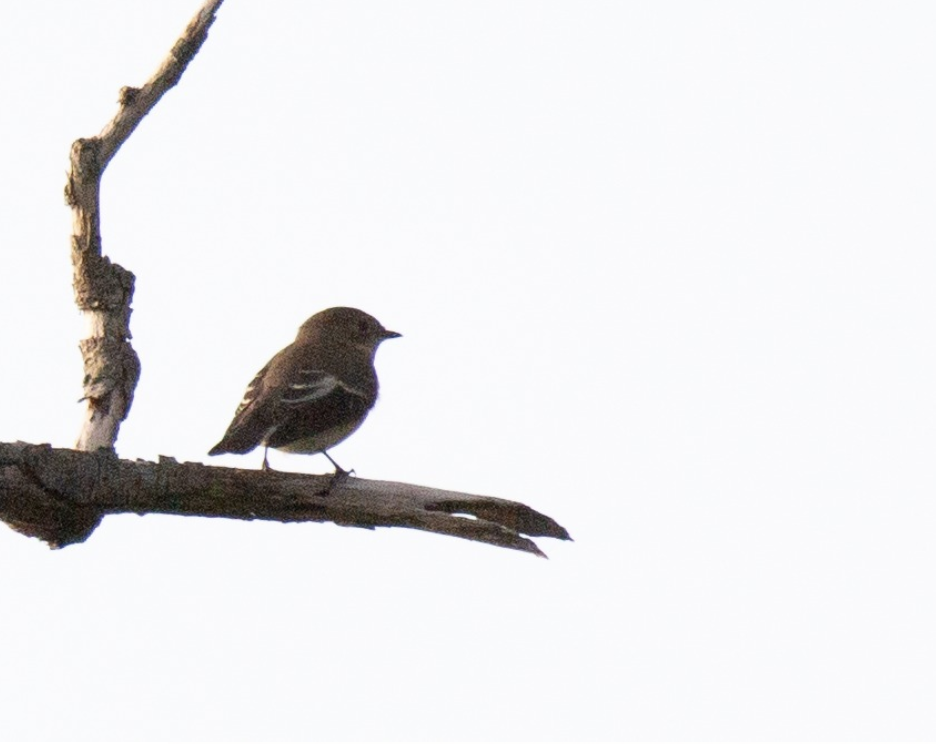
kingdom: Animalia
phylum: Chordata
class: Aves
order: Passeriformes
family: Muscicapidae
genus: Ficedula
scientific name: Ficedula hypoleuca
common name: European pied flycatcher
